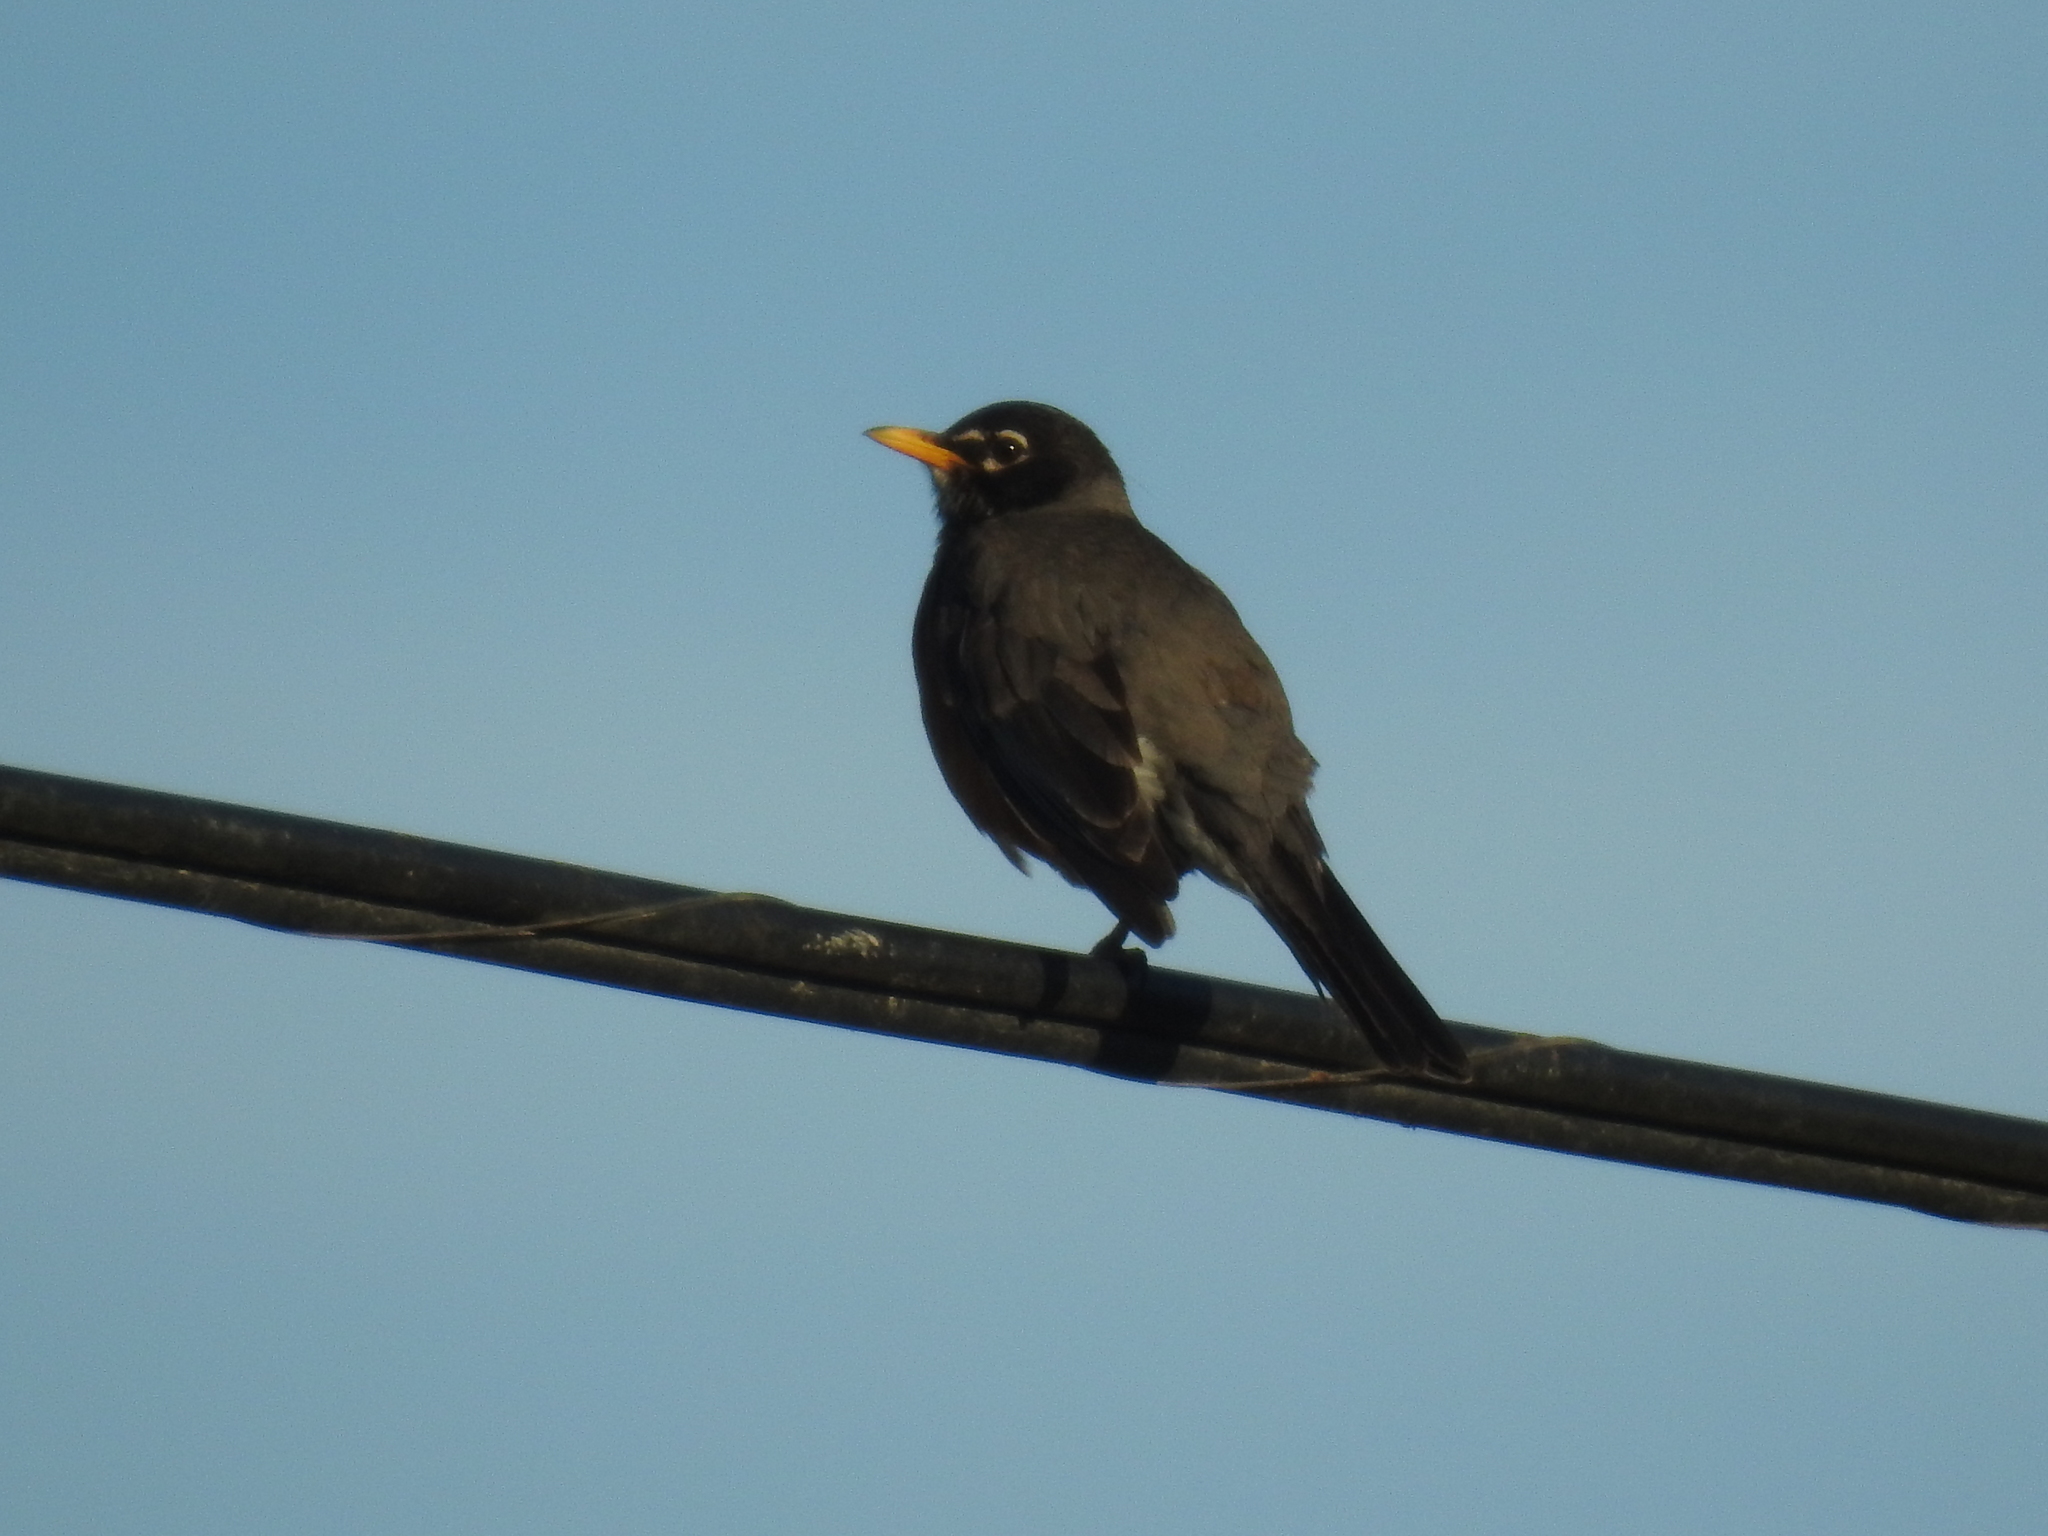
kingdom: Animalia
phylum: Chordata
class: Aves
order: Passeriformes
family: Turdidae
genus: Turdus
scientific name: Turdus migratorius
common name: American robin
